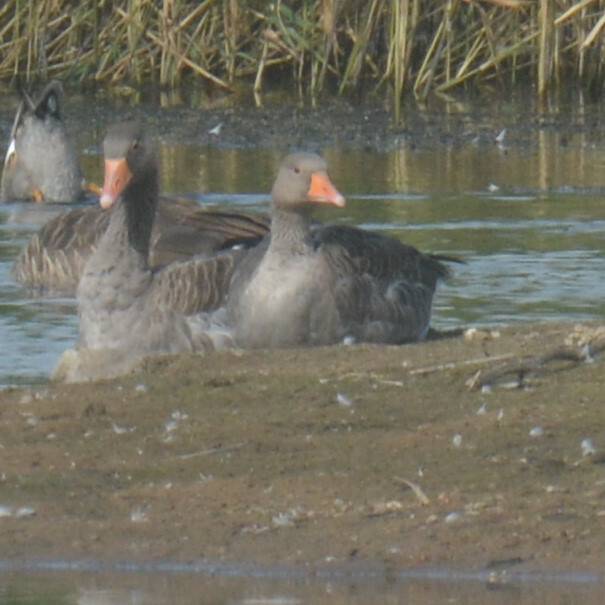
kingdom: Animalia
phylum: Chordata
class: Aves
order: Anseriformes
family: Anatidae
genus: Anser
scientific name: Anser anser
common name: Greylag goose
